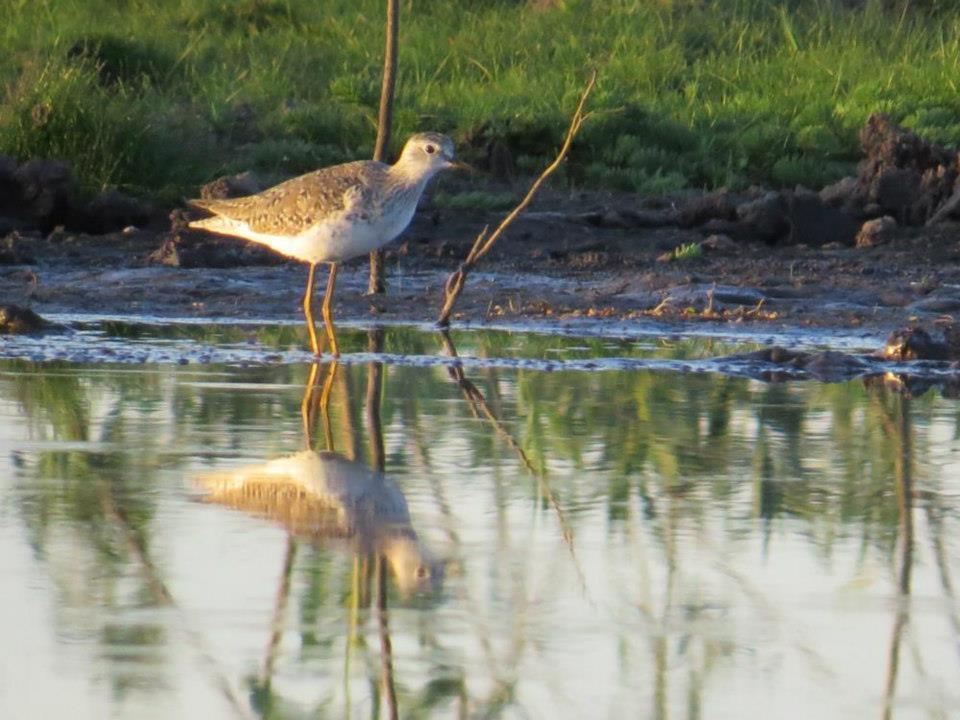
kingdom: Animalia
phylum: Chordata
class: Aves
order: Charadriiformes
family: Scolopacidae
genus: Tringa
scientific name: Tringa flavipes
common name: Lesser yellowlegs
